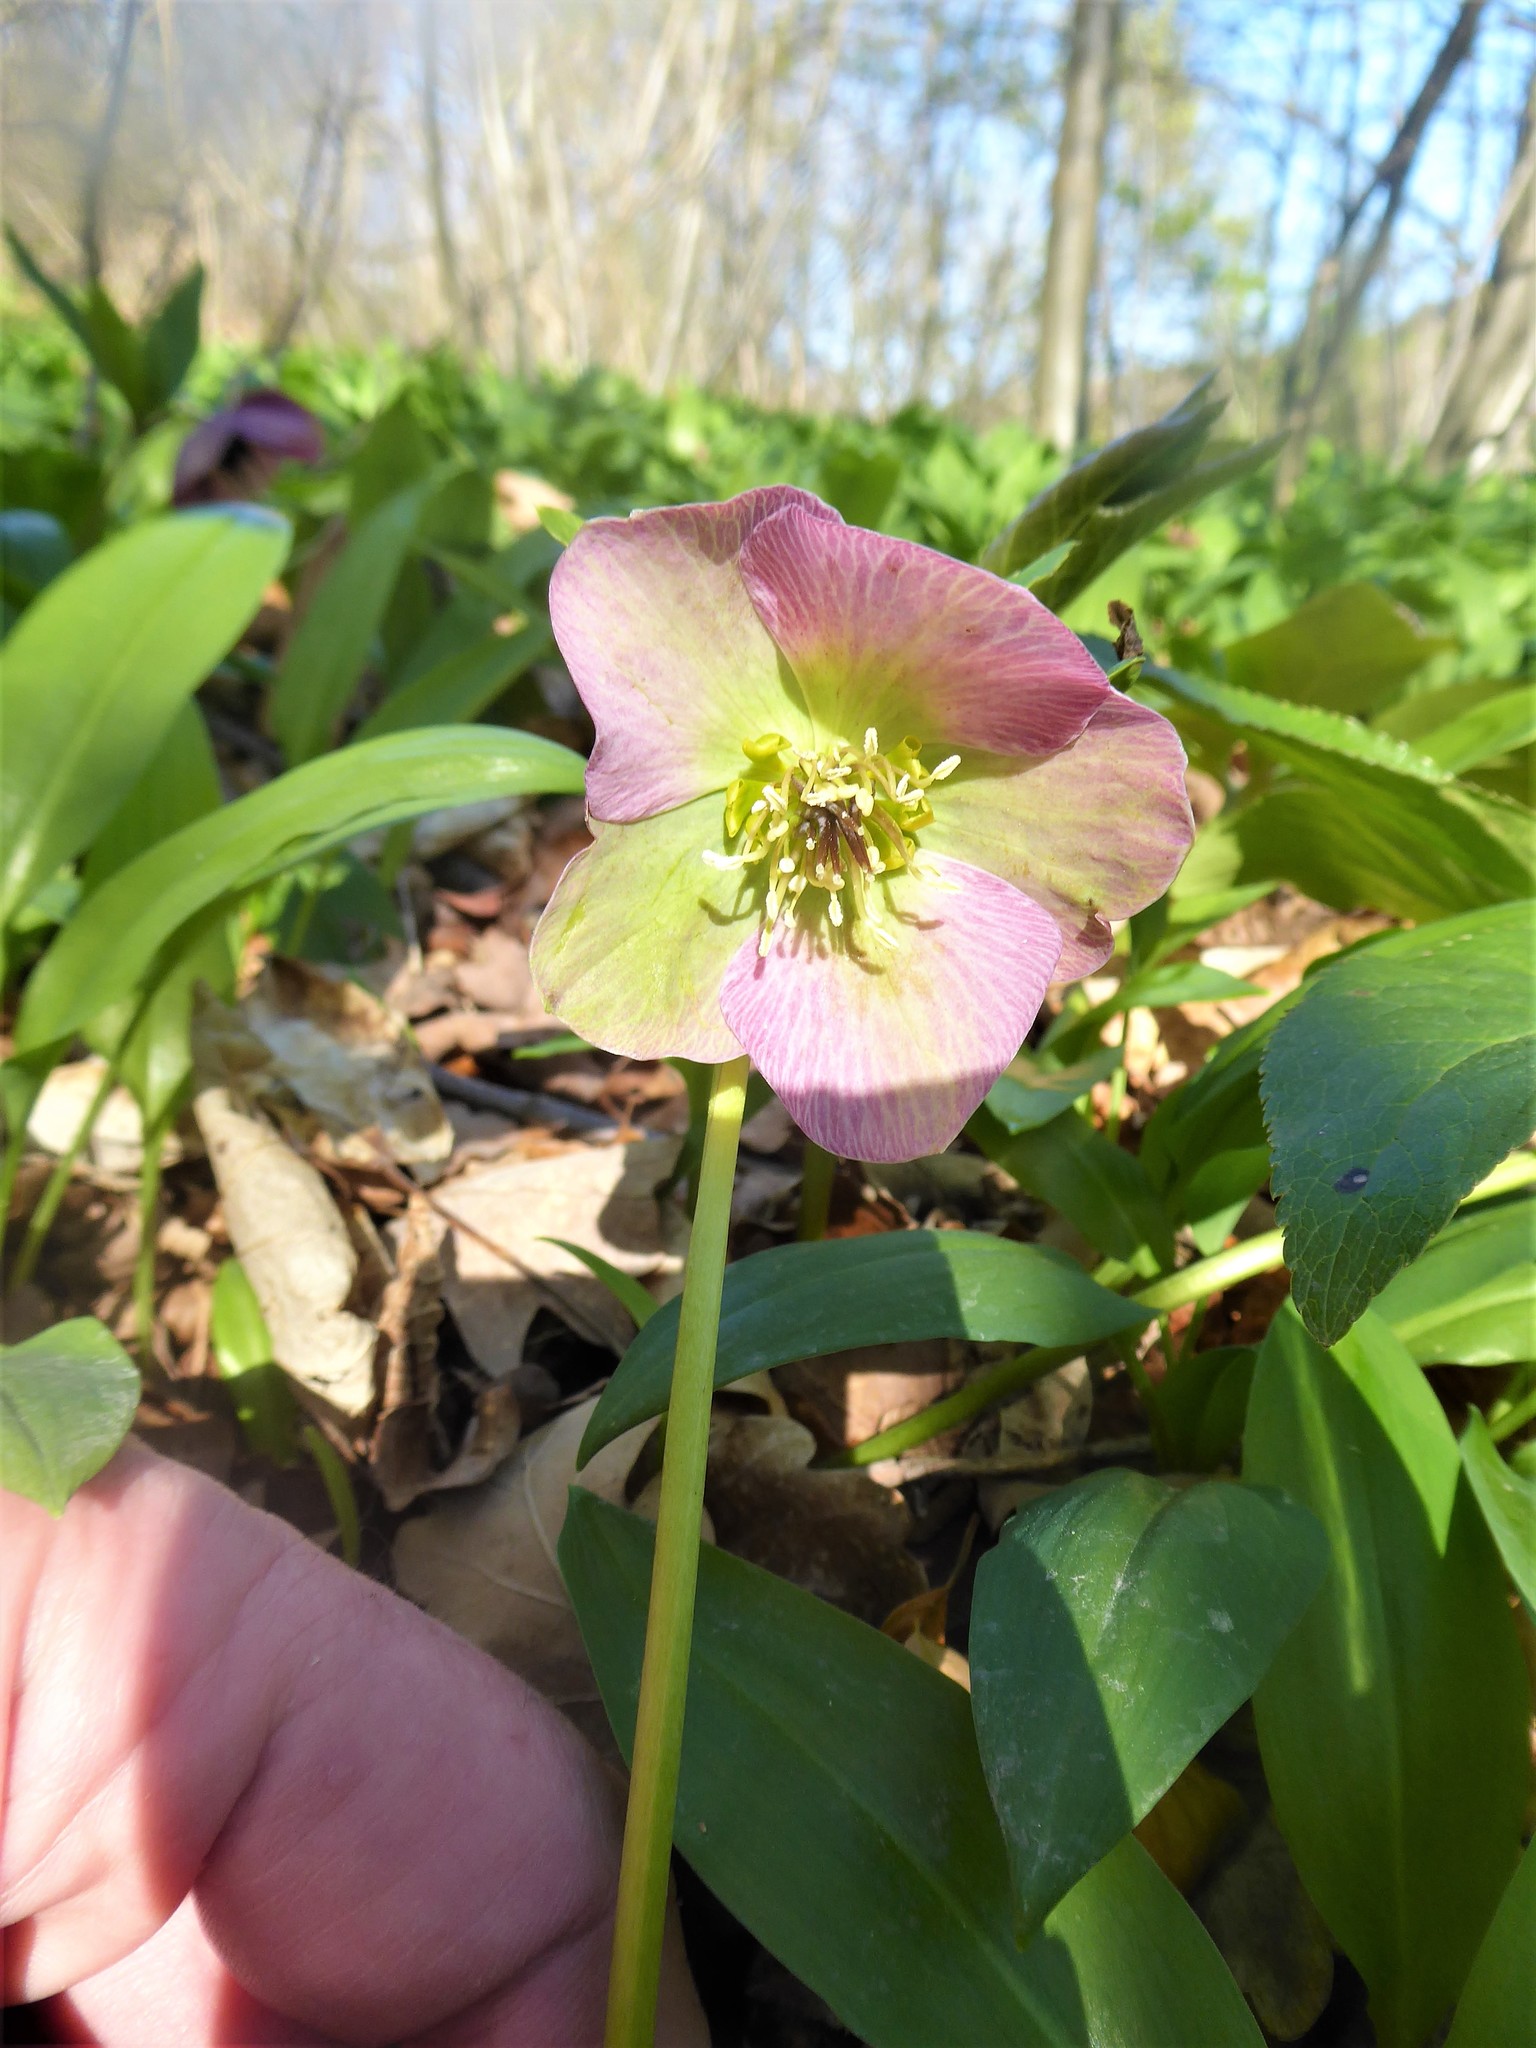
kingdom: Plantae
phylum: Tracheophyta
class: Magnoliopsida
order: Ranunculales
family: Ranunculaceae
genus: Helleborus
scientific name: Helleborus hybridus
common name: Hybrid lenten-rose
